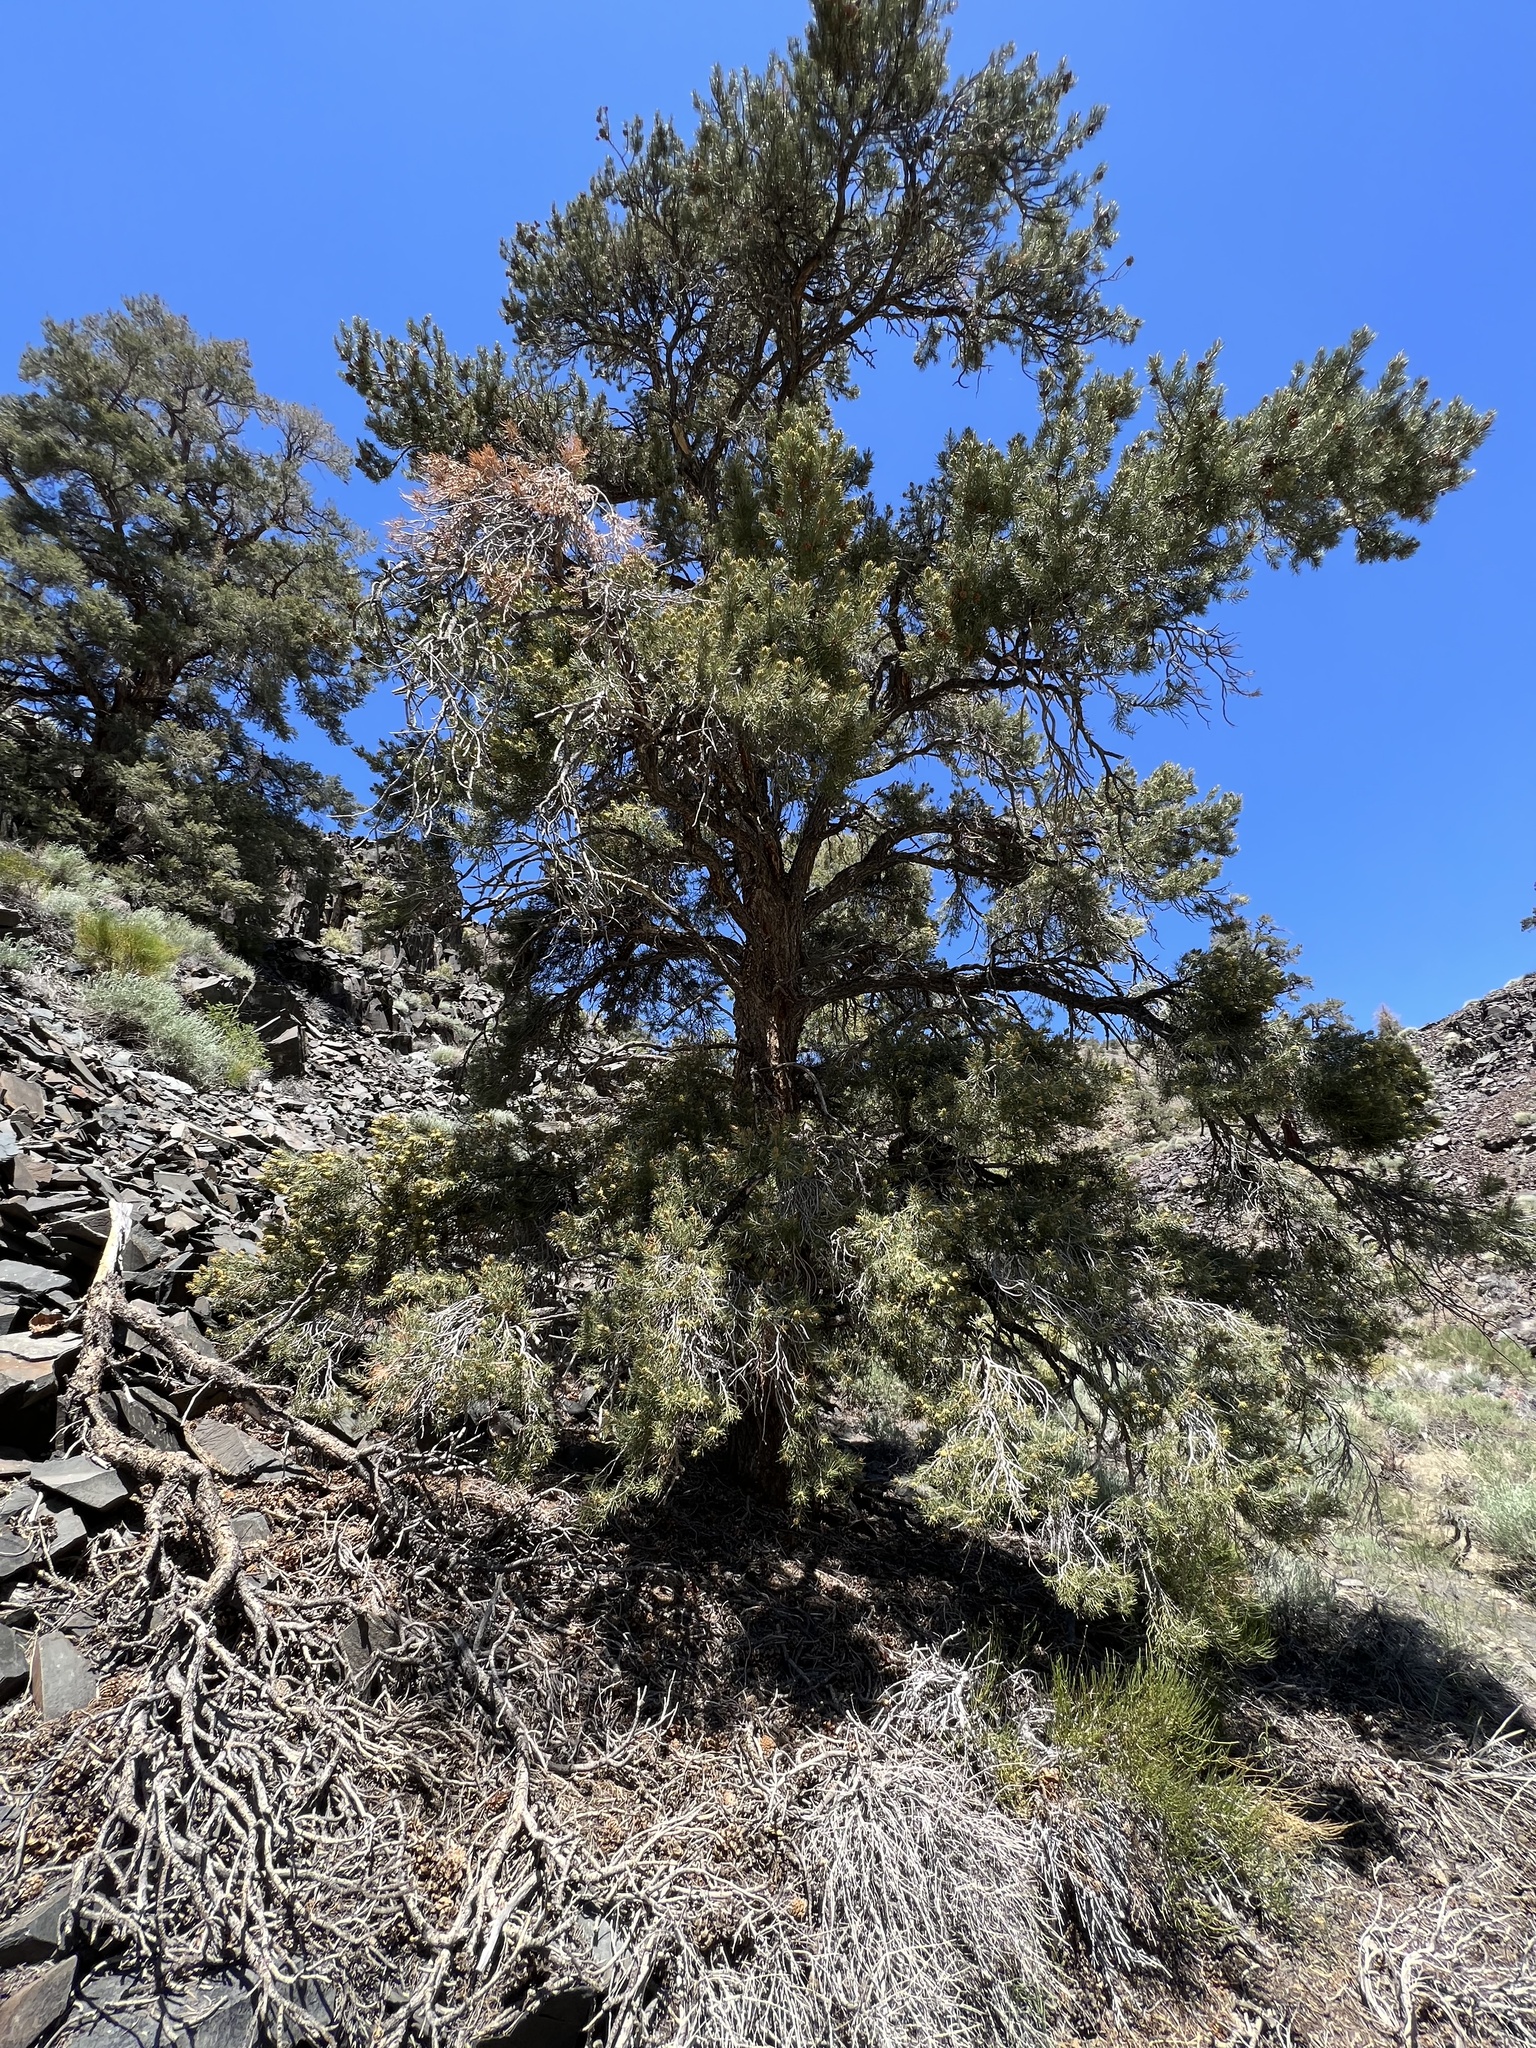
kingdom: Plantae
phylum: Tracheophyta
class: Pinopsida
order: Pinales
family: Pinaceae
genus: Pinus
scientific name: Pinus monophylla
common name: One-leaved nut pine
